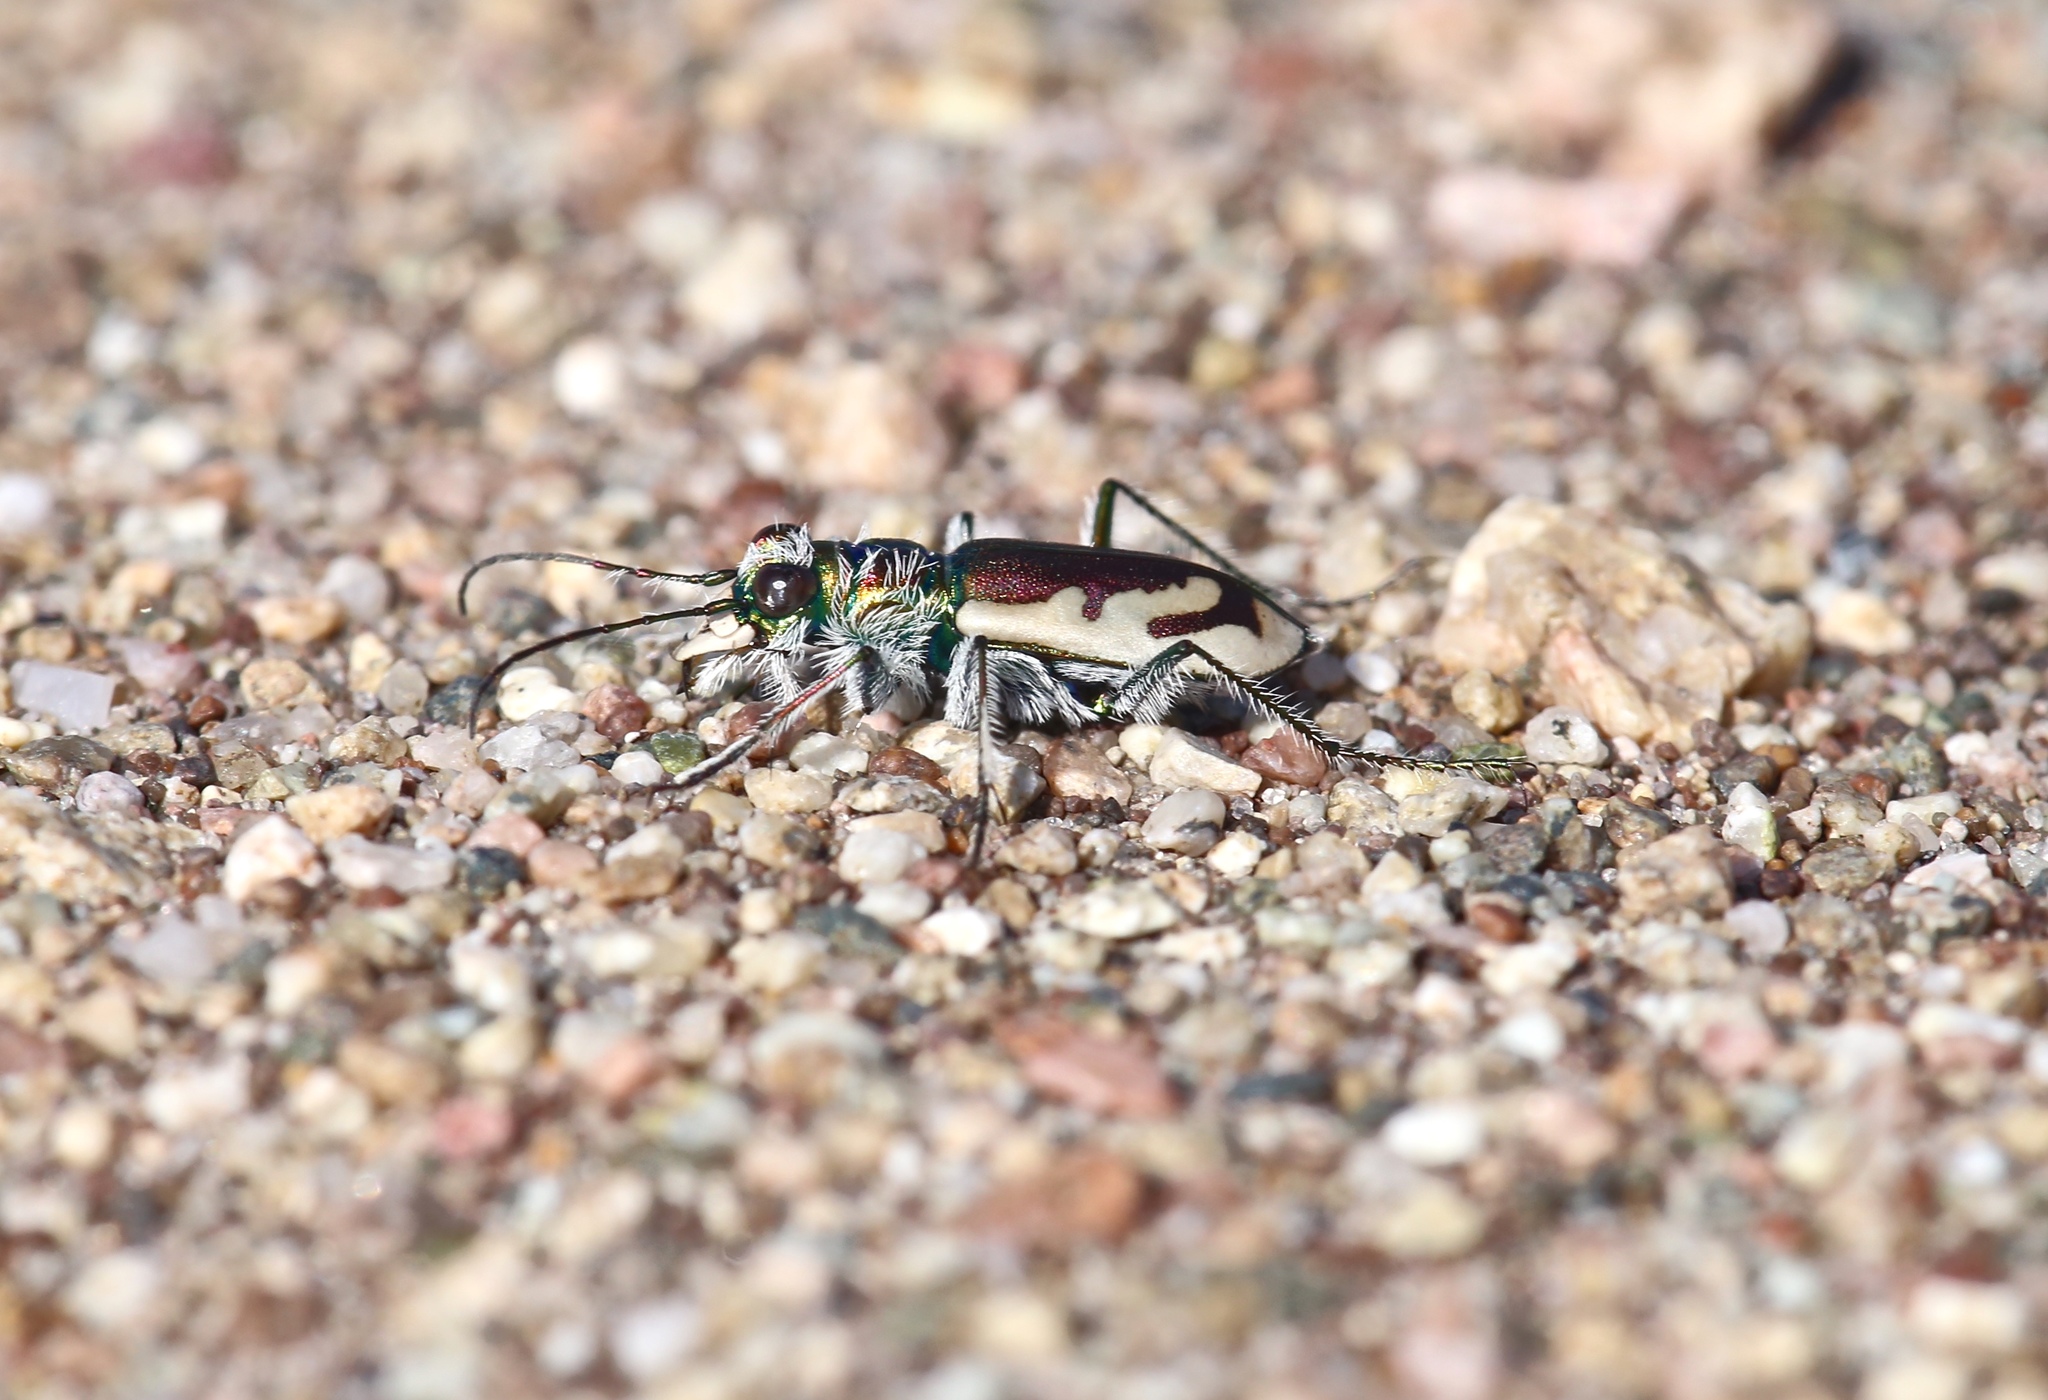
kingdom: Animalia
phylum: Arthropoda
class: Insecta
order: Coleoptera
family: Carabidae
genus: Cicindela
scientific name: Cicindela theatina
